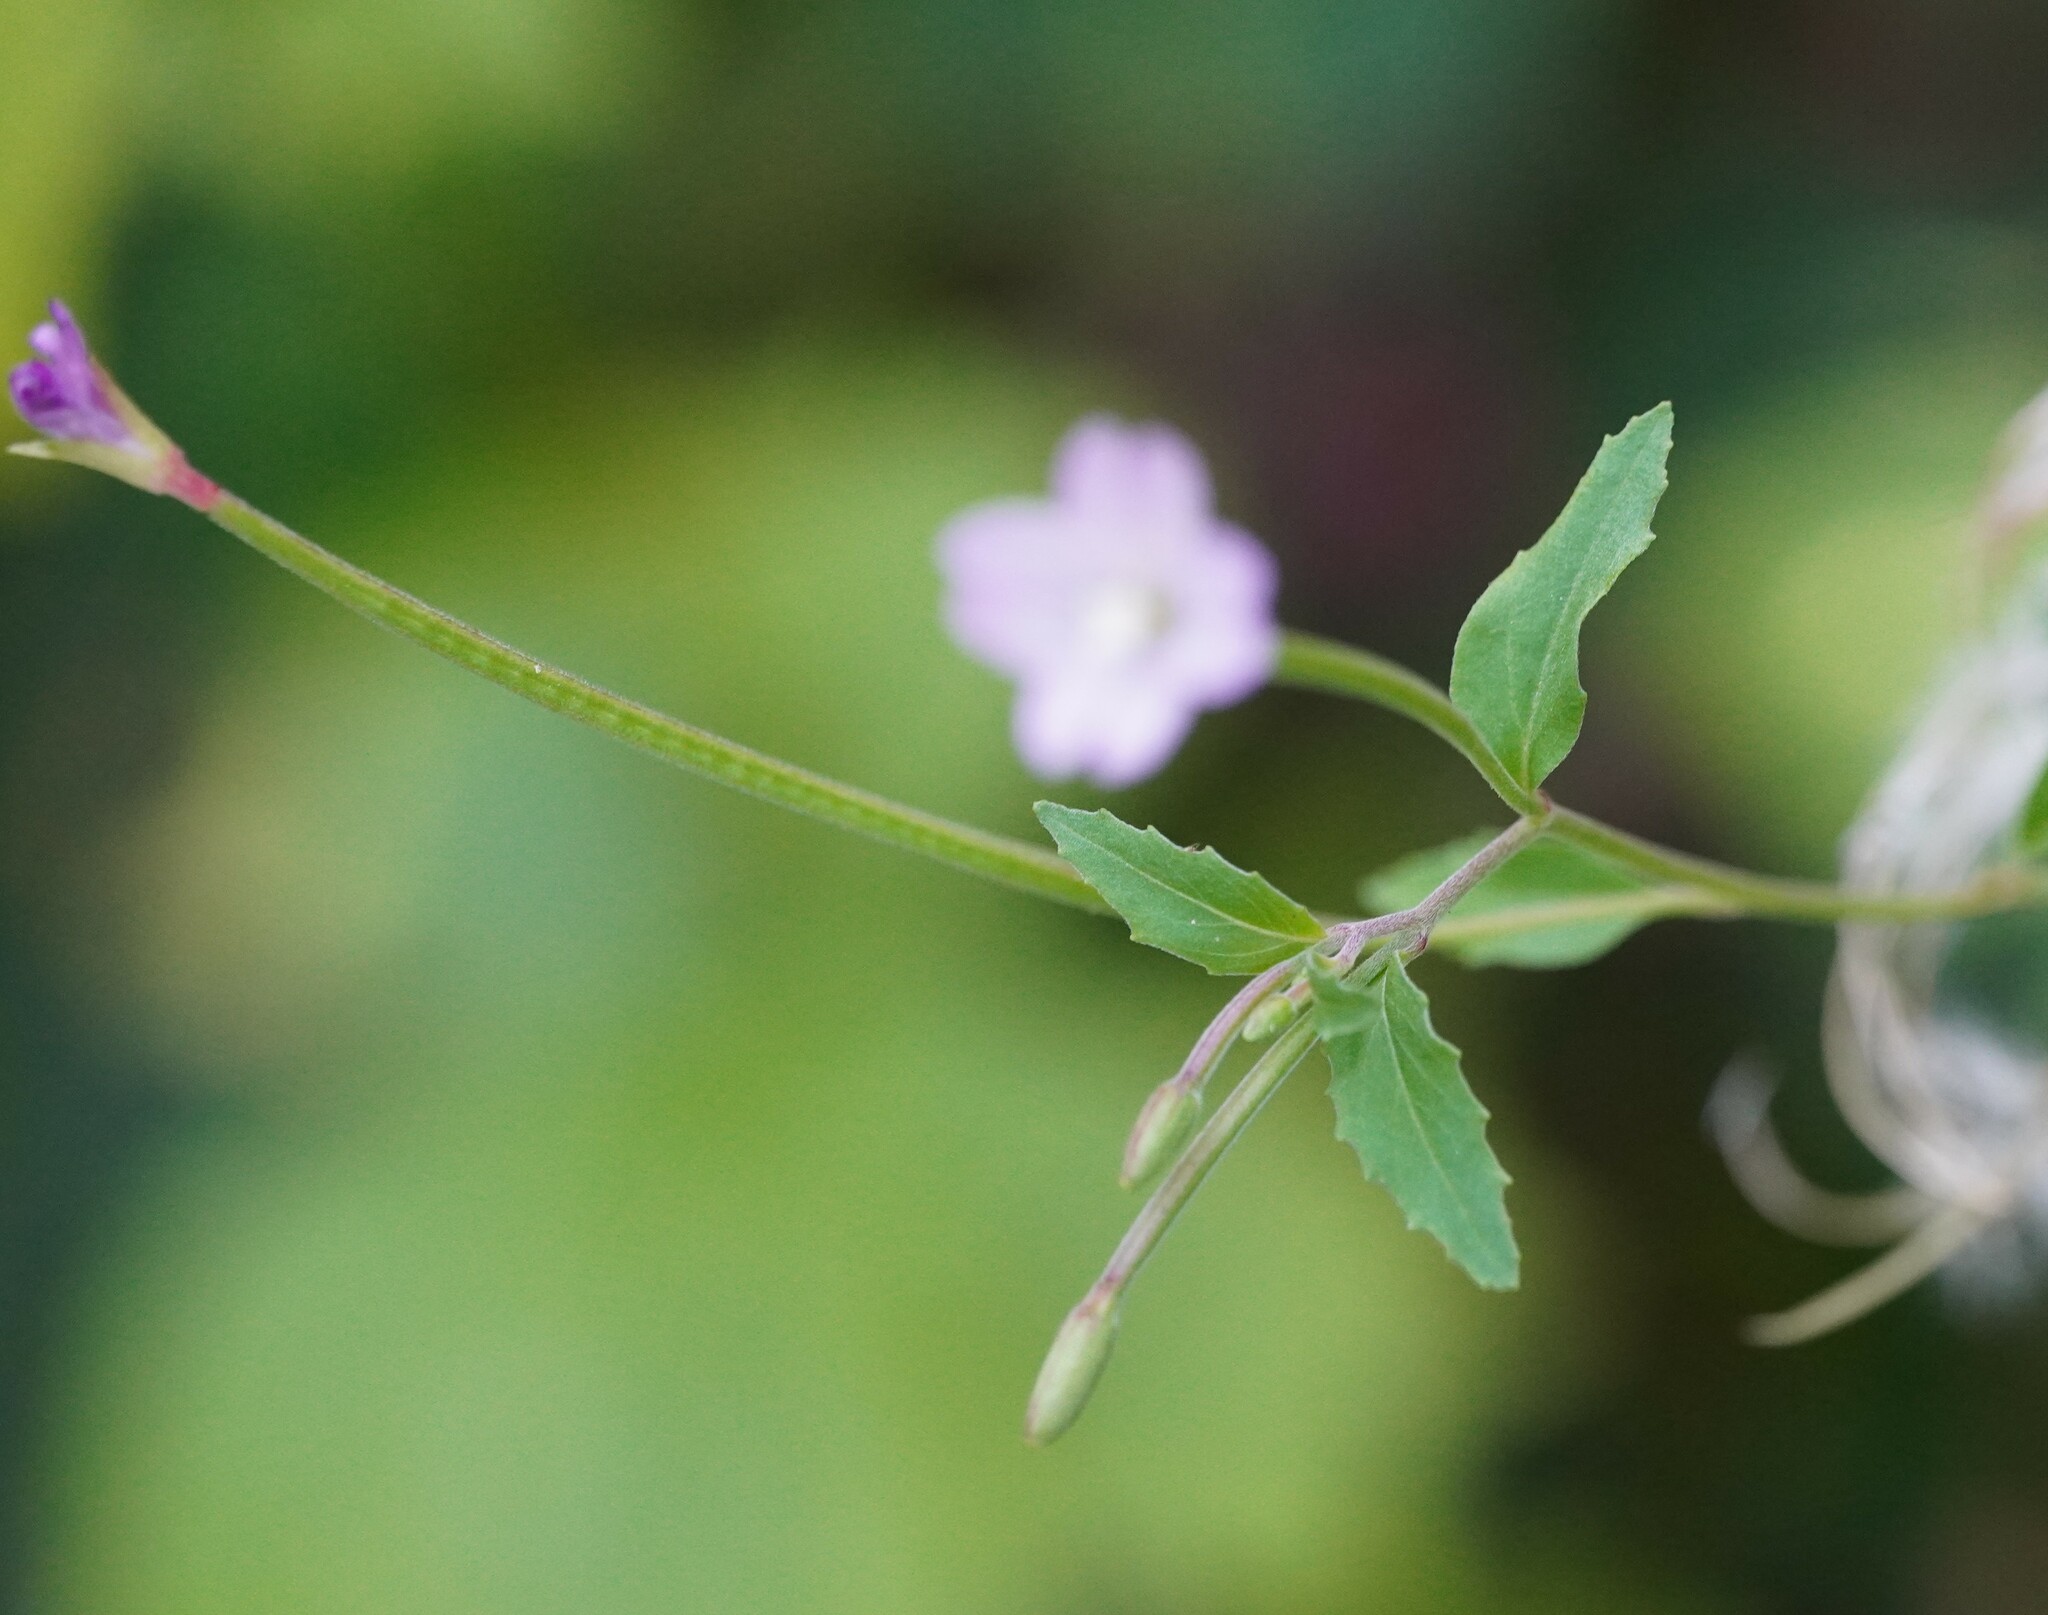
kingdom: Plantae
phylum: Tracheophyta
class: Magnoliopsida
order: Myrtales
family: Onagraceae
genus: Epilobium
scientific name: Epilobium montanum
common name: Broad-leaved willowherb
